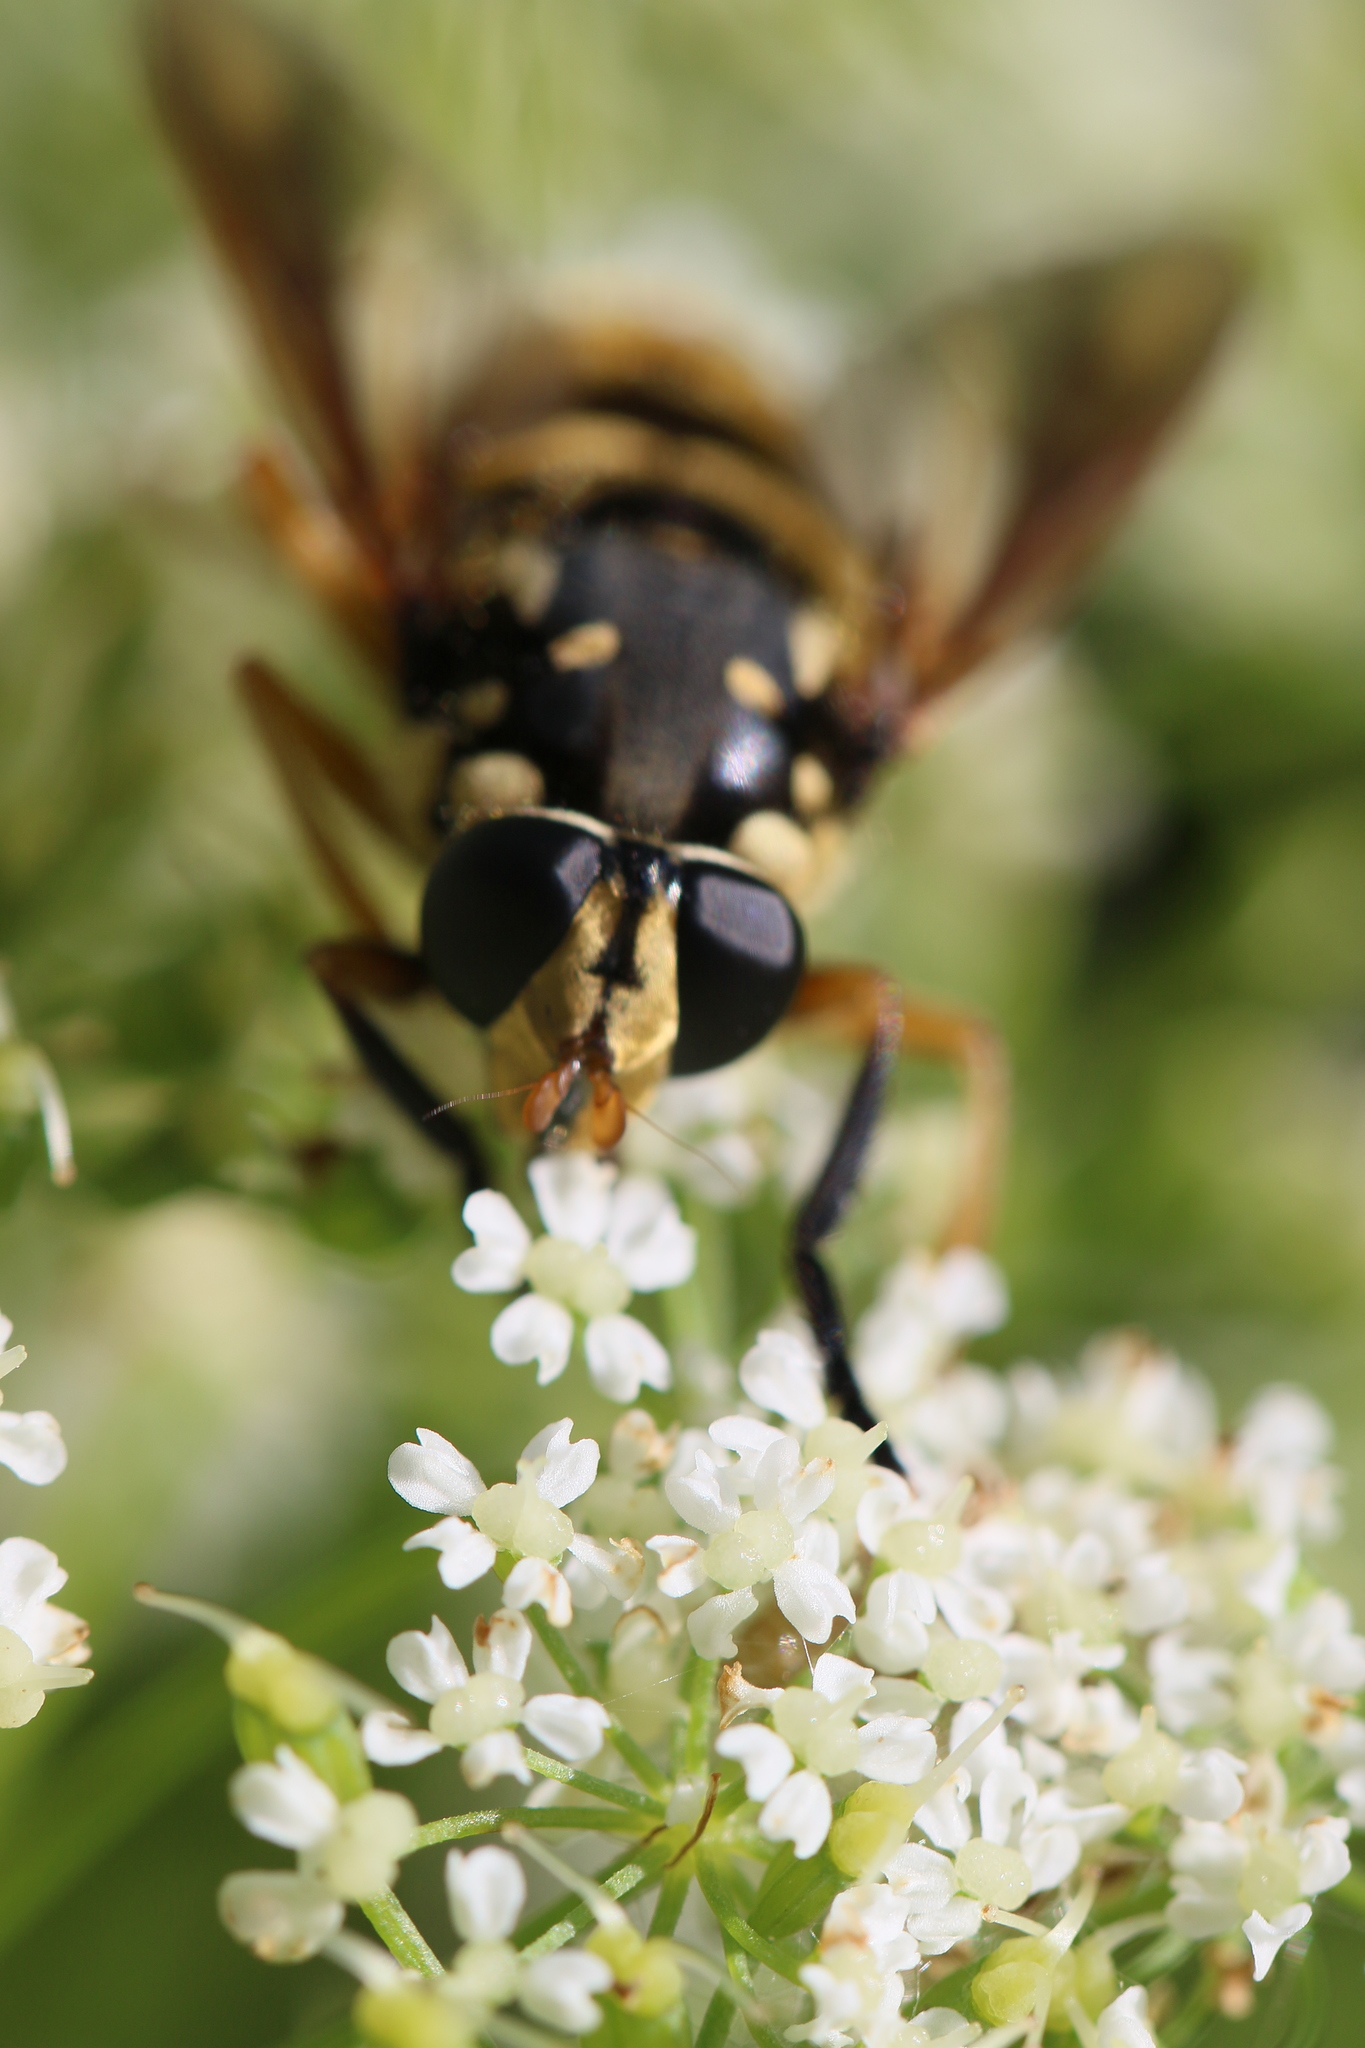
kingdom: Animalia
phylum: Arthropoda
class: Insecta
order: Diptera
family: Syrphidae
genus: Temnostoma
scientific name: Temnostoma alternans
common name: Wasp-like falsehorn
